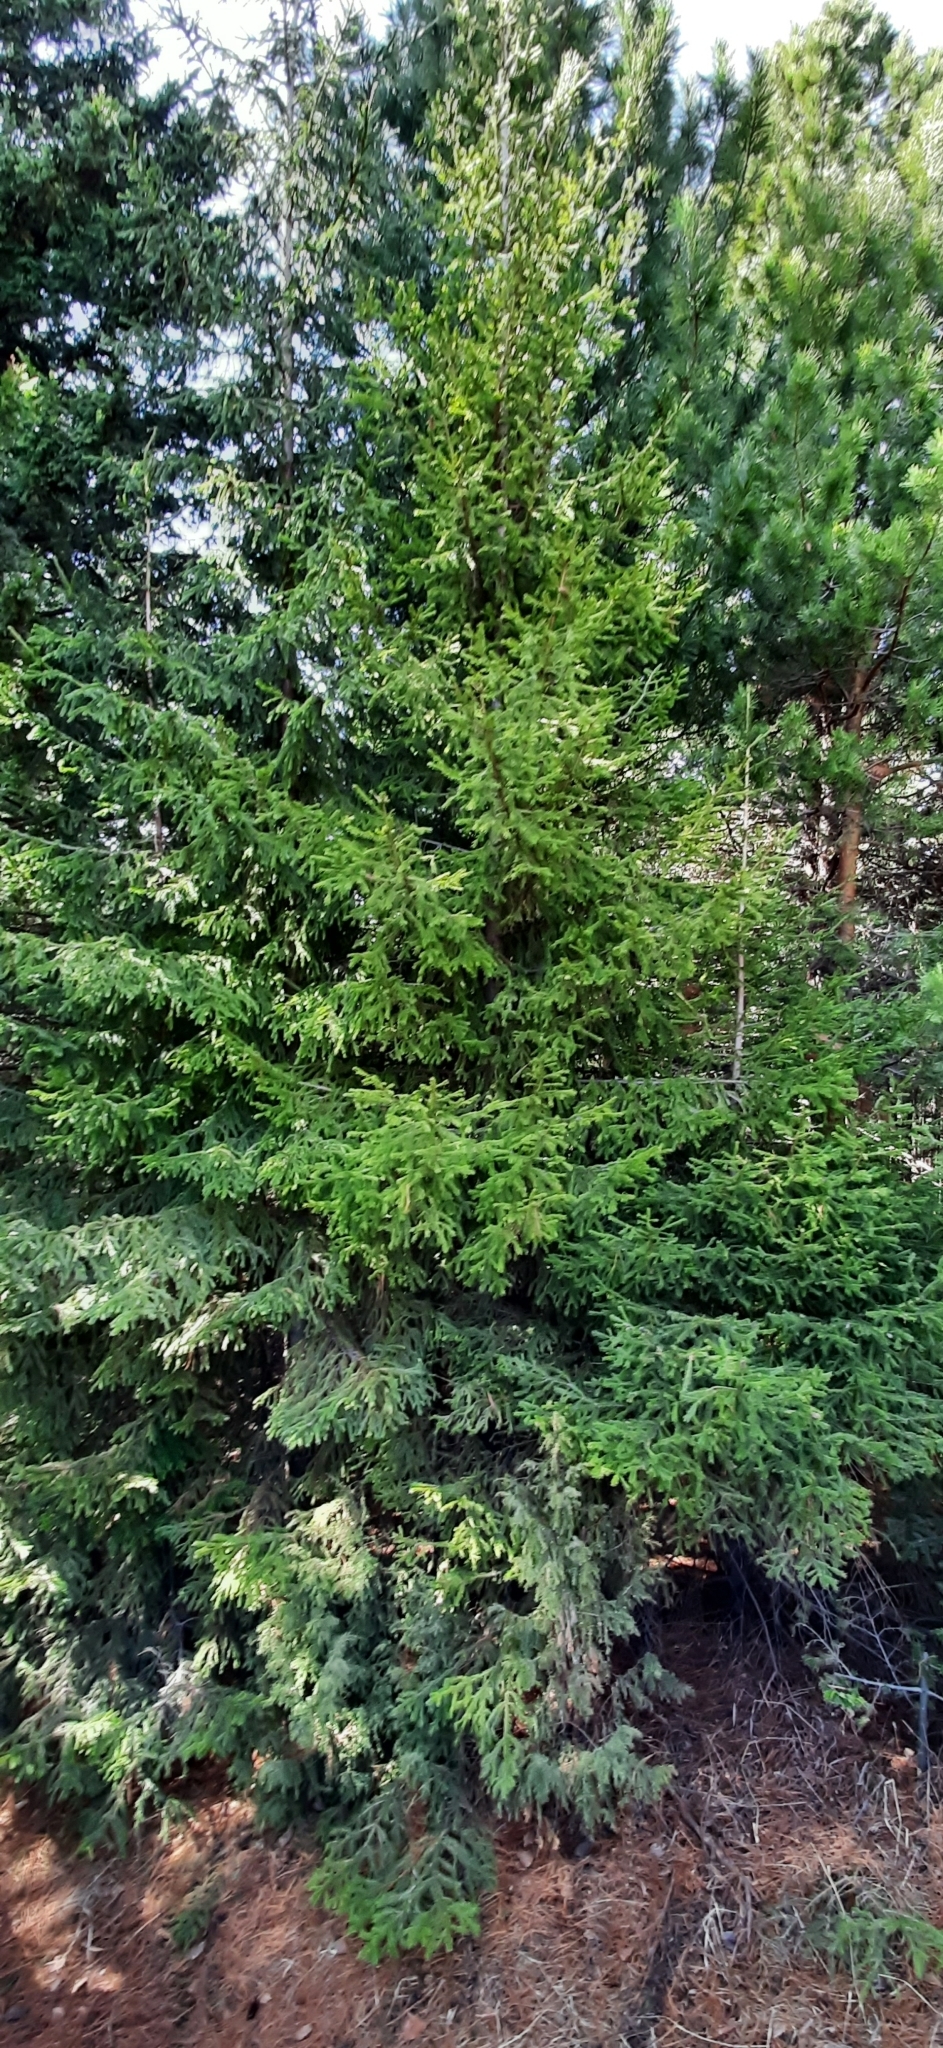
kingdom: Plantae
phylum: Tracheophyta
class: Pinopsida
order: Pinales
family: Pinaceae
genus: Picea
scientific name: Picea obovata
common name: Siberian spruce
